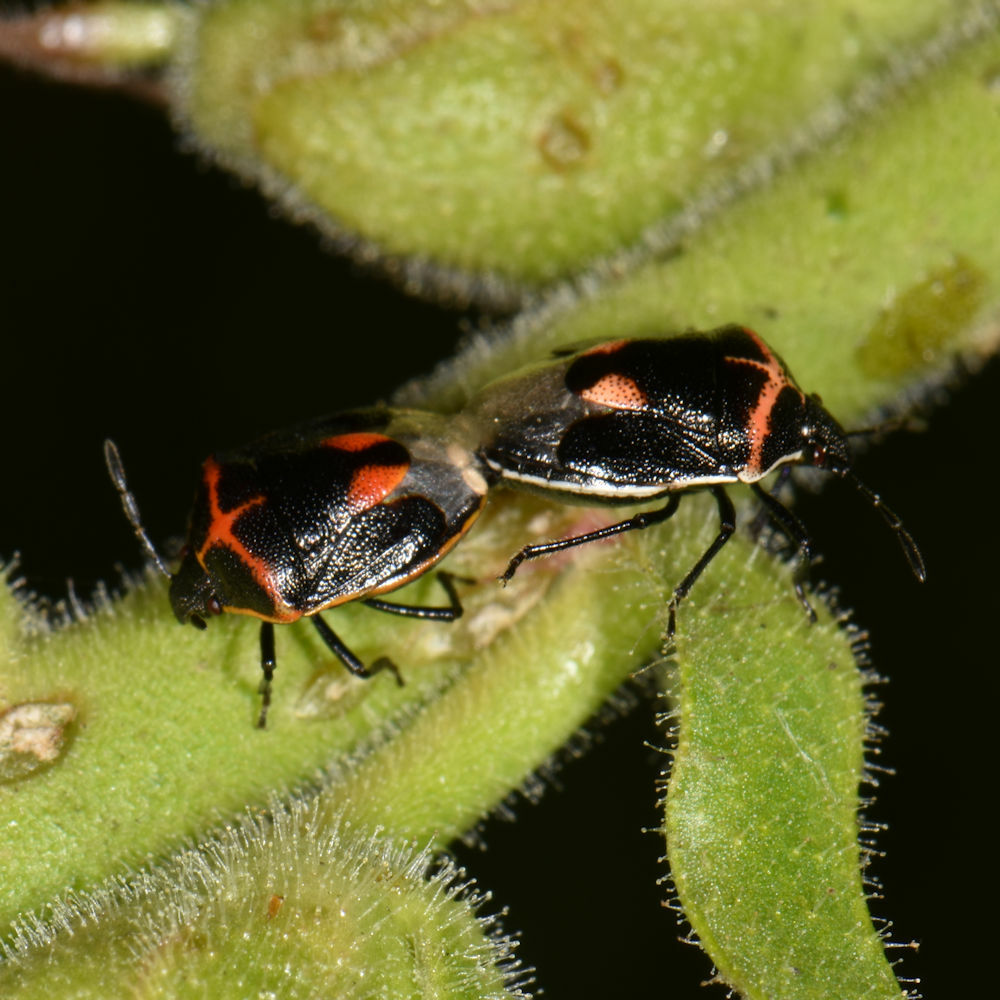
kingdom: Animalia
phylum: Arthropoda
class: Insecta
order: Hemiptera
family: Pentatomidae
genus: Cosmopepla
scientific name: Cosmopepla lintneriana
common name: Twice-stabbed stink bug
